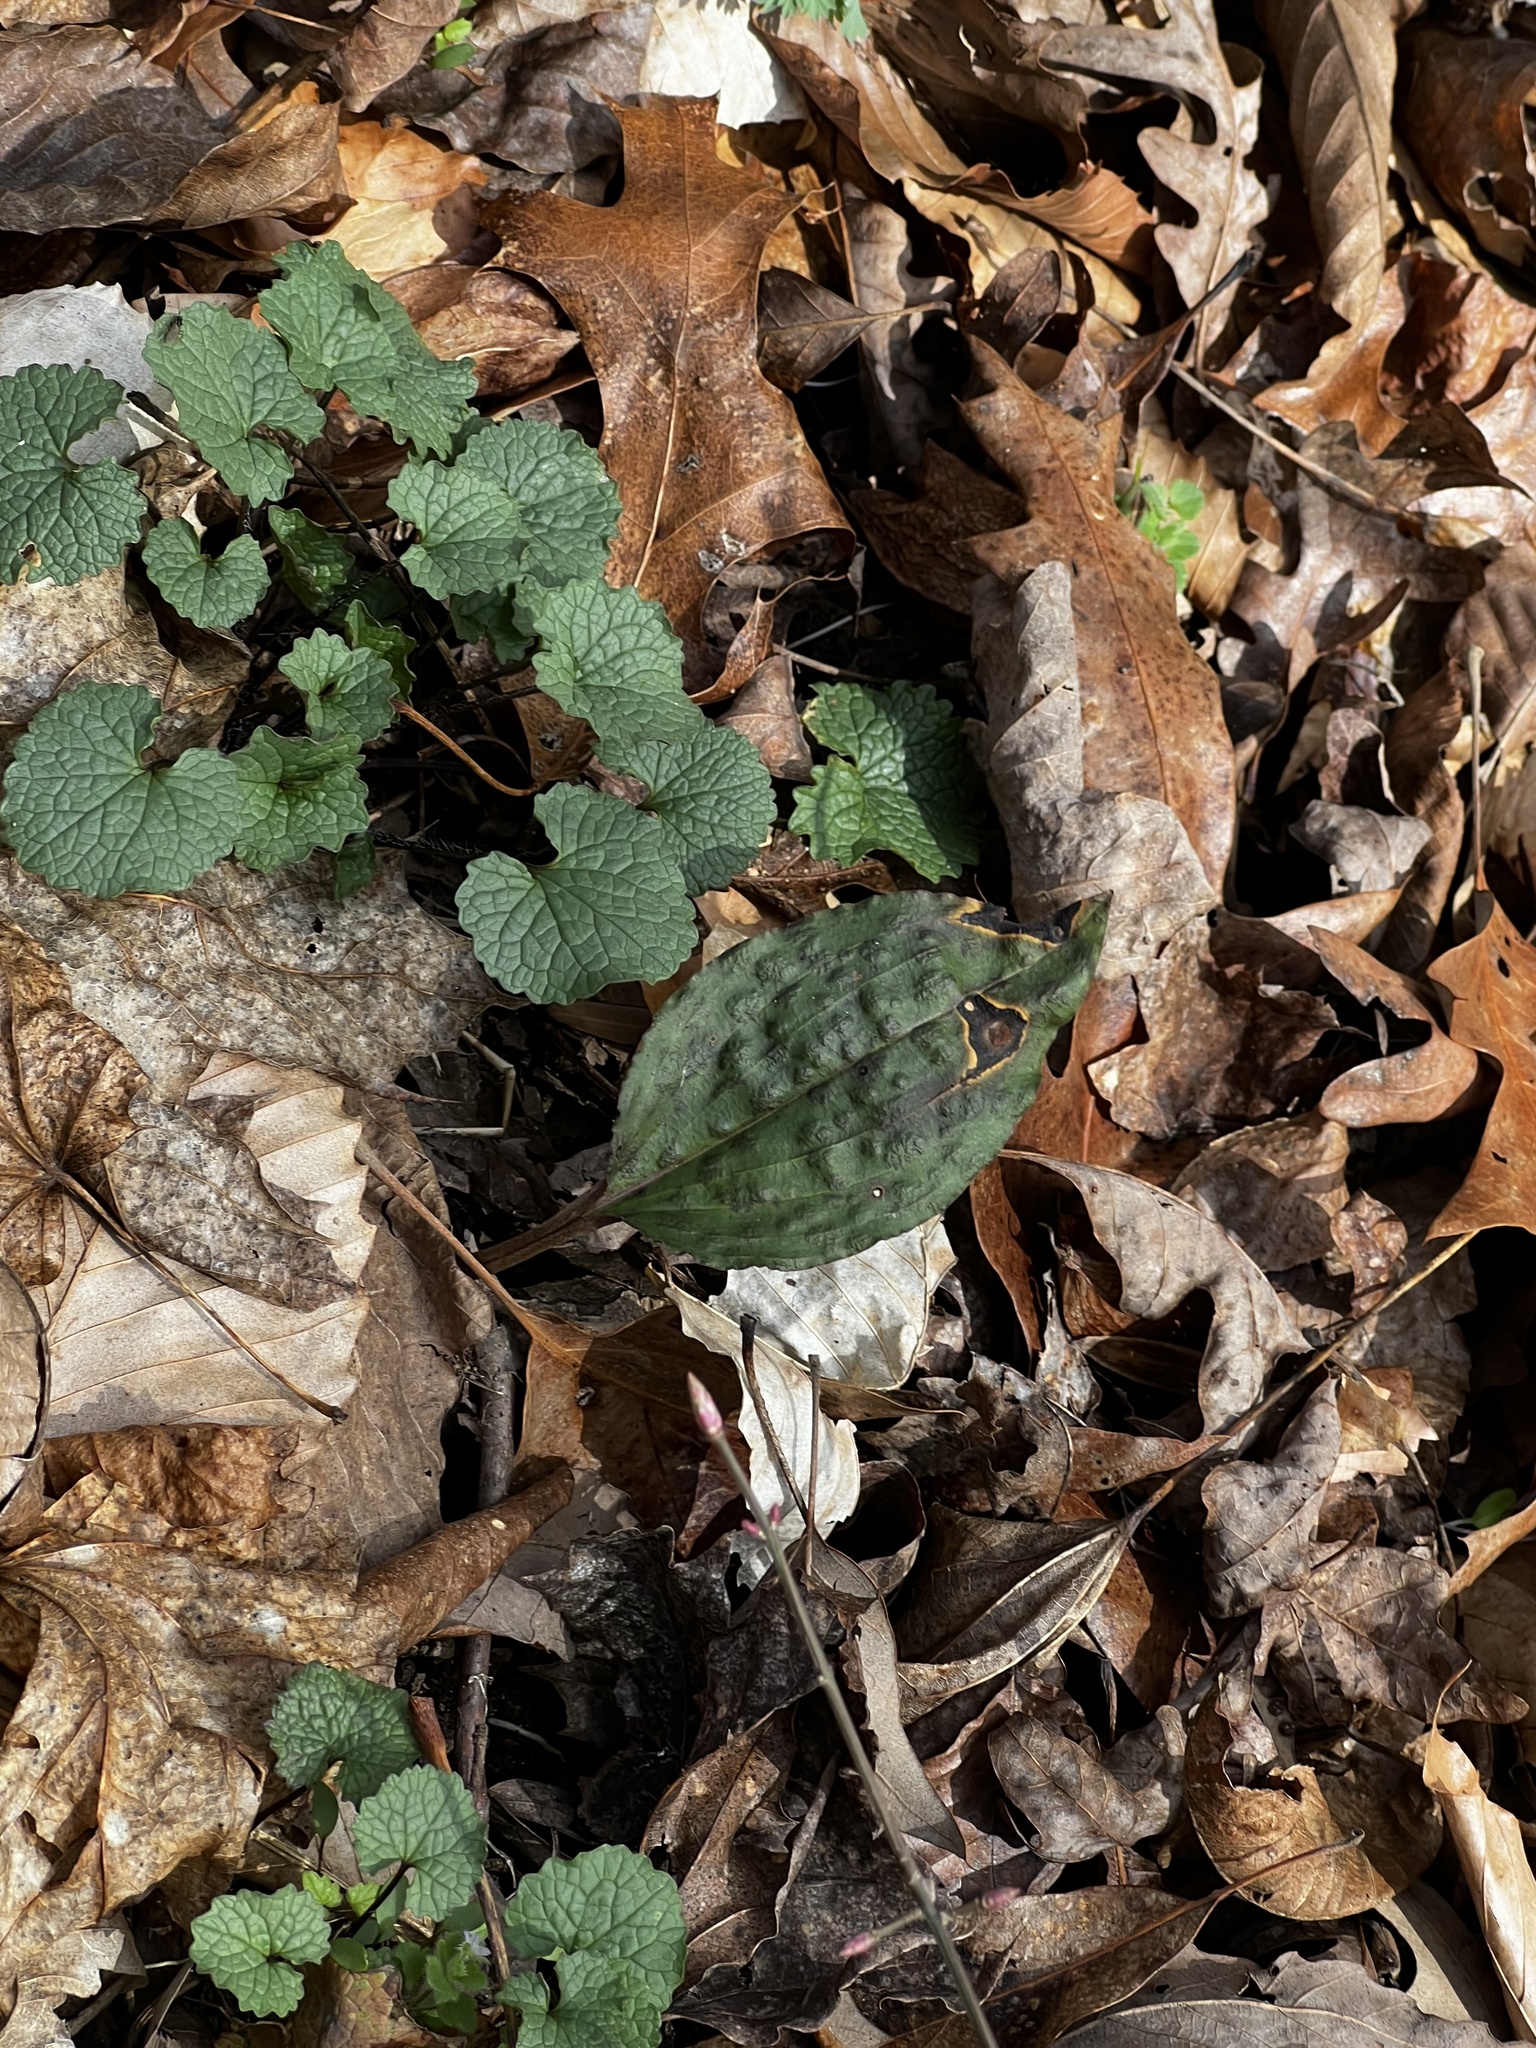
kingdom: Plantae
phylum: Tracheophyta
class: Liliopsida
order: Asparagales
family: Orchidaceae
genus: Tipularia
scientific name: Tipularia discolor
